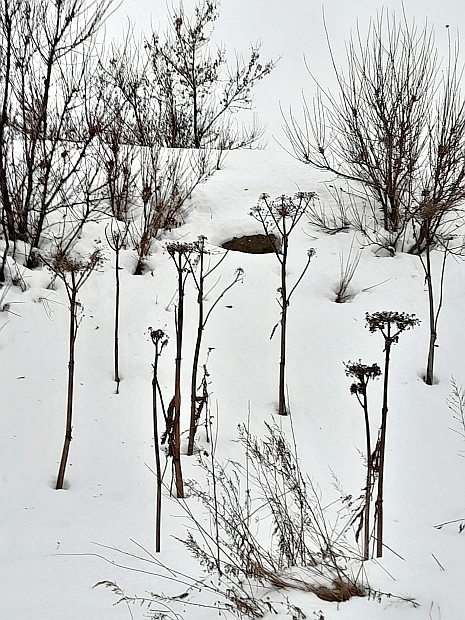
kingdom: Plantae
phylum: Tracheophyta
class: Magnoliopsida
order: Apiales
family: Apiaceae
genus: Heracleum
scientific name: Heracleum sosnowskyi
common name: Sosnowsky's hogweed
